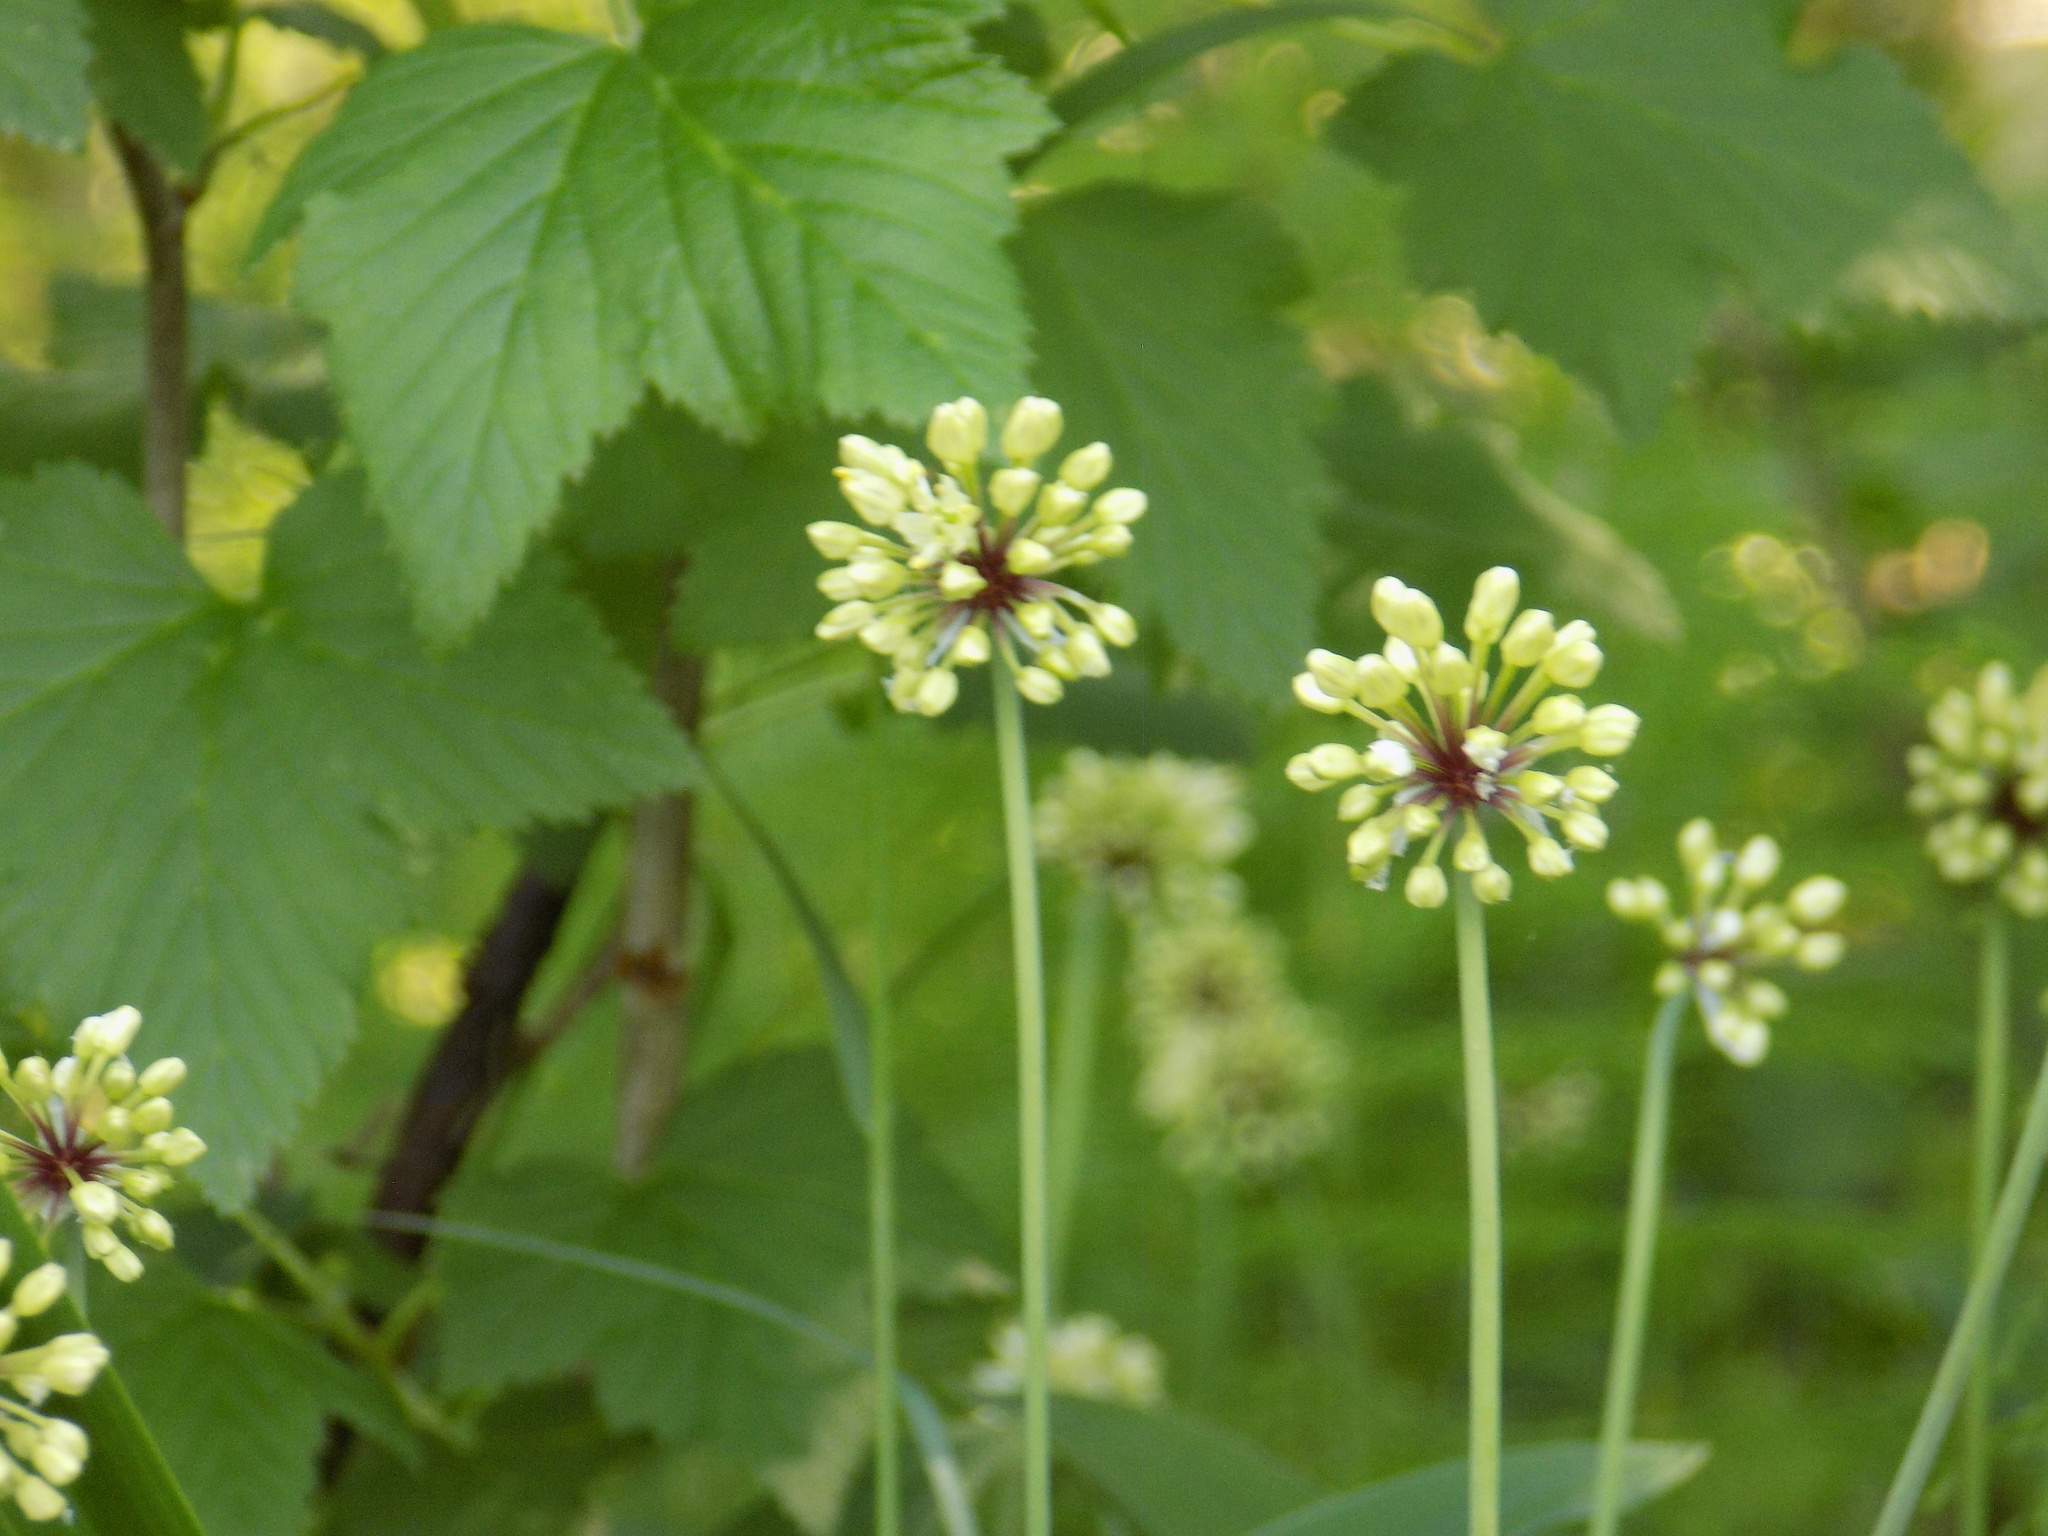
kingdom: Plantae
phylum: Tracheophyta
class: Liliopsida
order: Asparagales
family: Amaryllidaceae
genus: Allium
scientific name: Allium microdictyon
